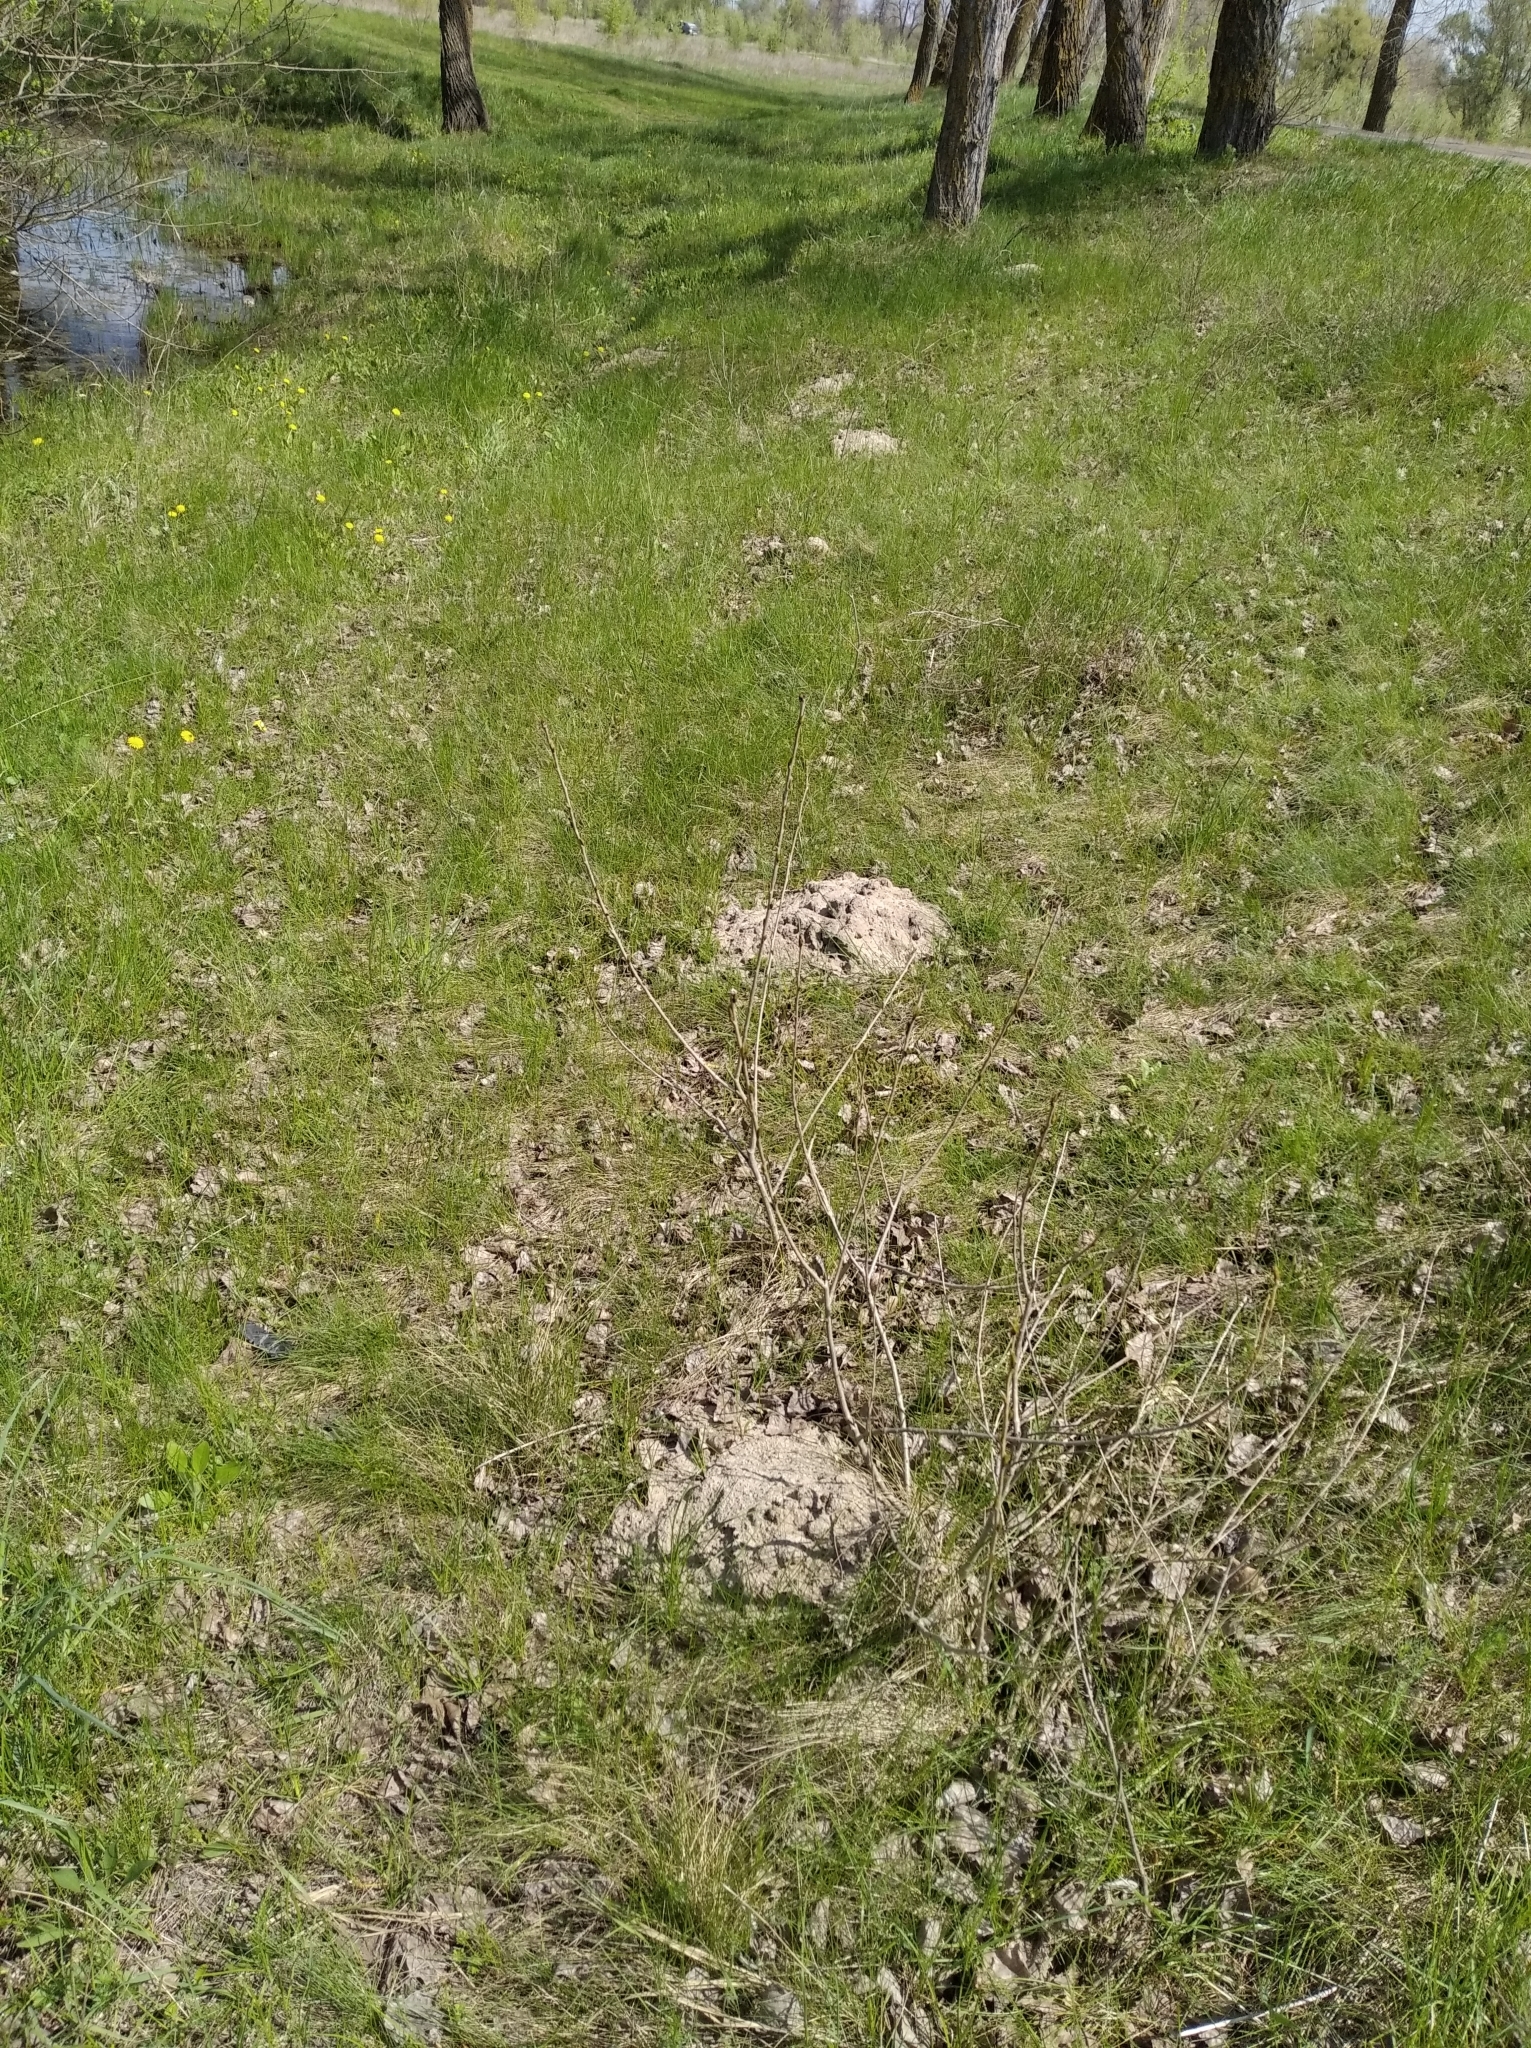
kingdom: Animalia
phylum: Chordata
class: Mammalia
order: Soricomorpha
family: Talpidae
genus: Talpa
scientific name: Talpa europaea
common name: European mole
